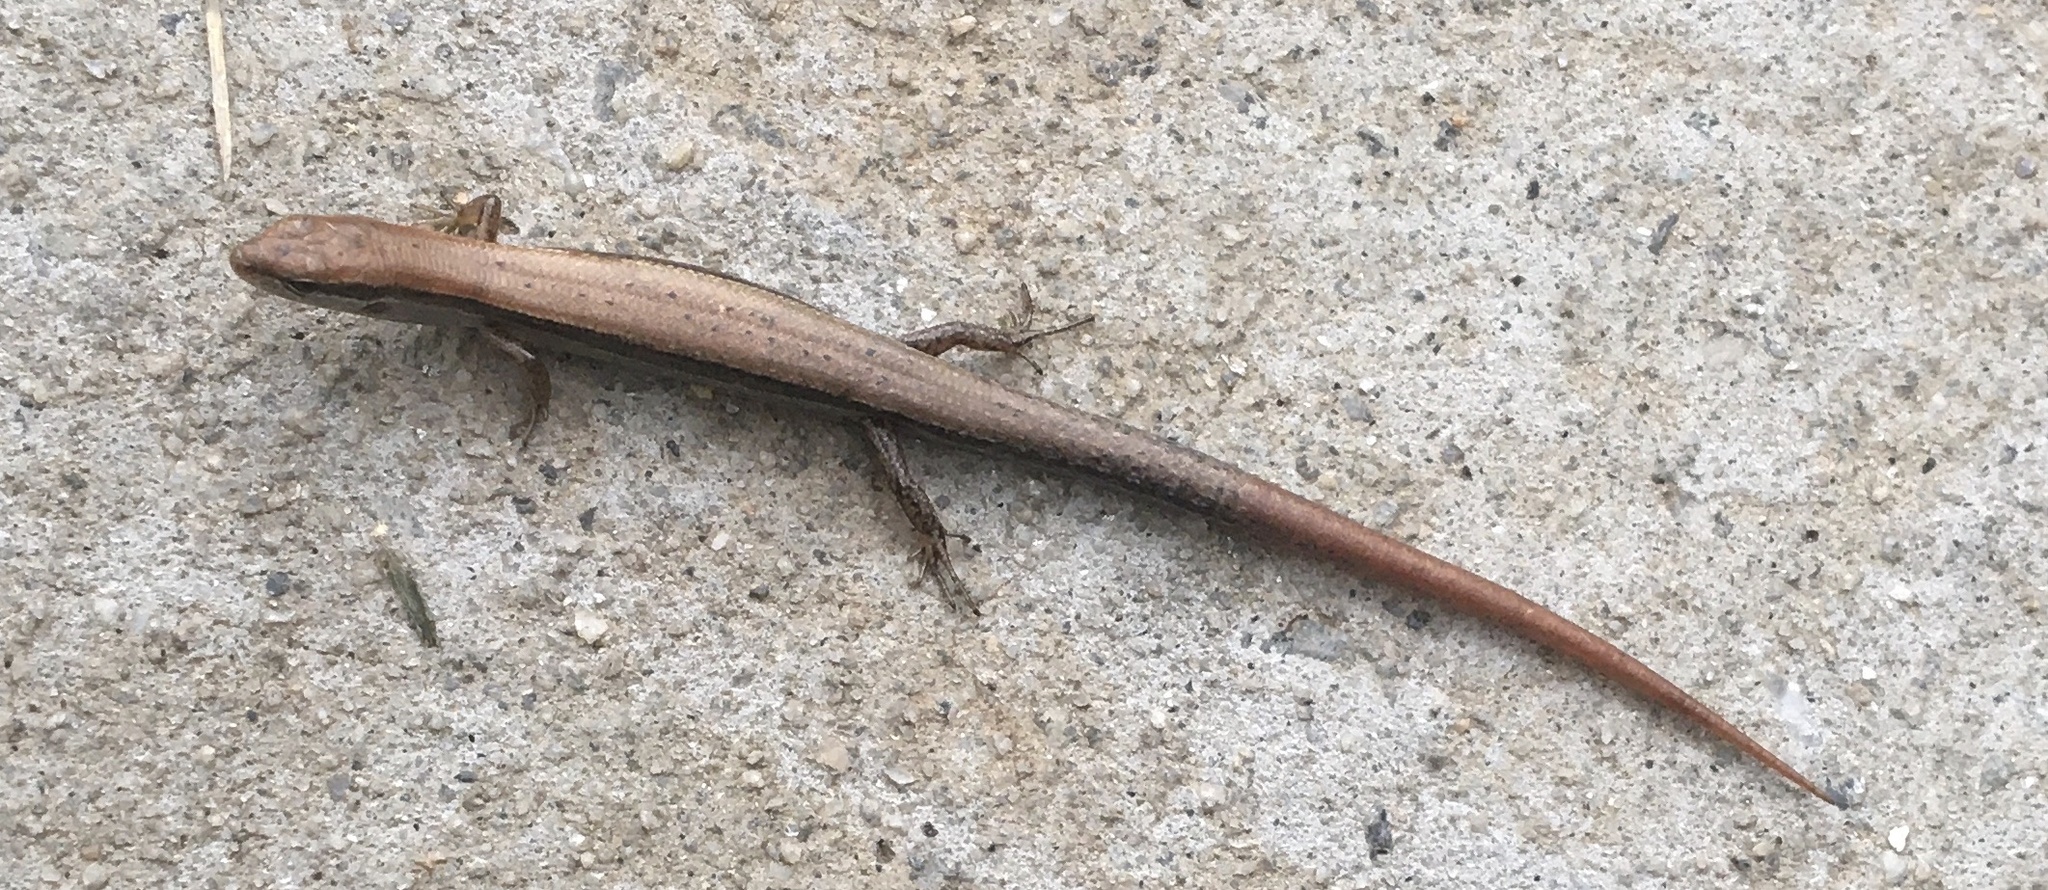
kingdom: Animalia
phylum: Chordata
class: Squamata
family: Scincidae
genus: Scincella
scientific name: Scincella lateralis
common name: Ground skink
